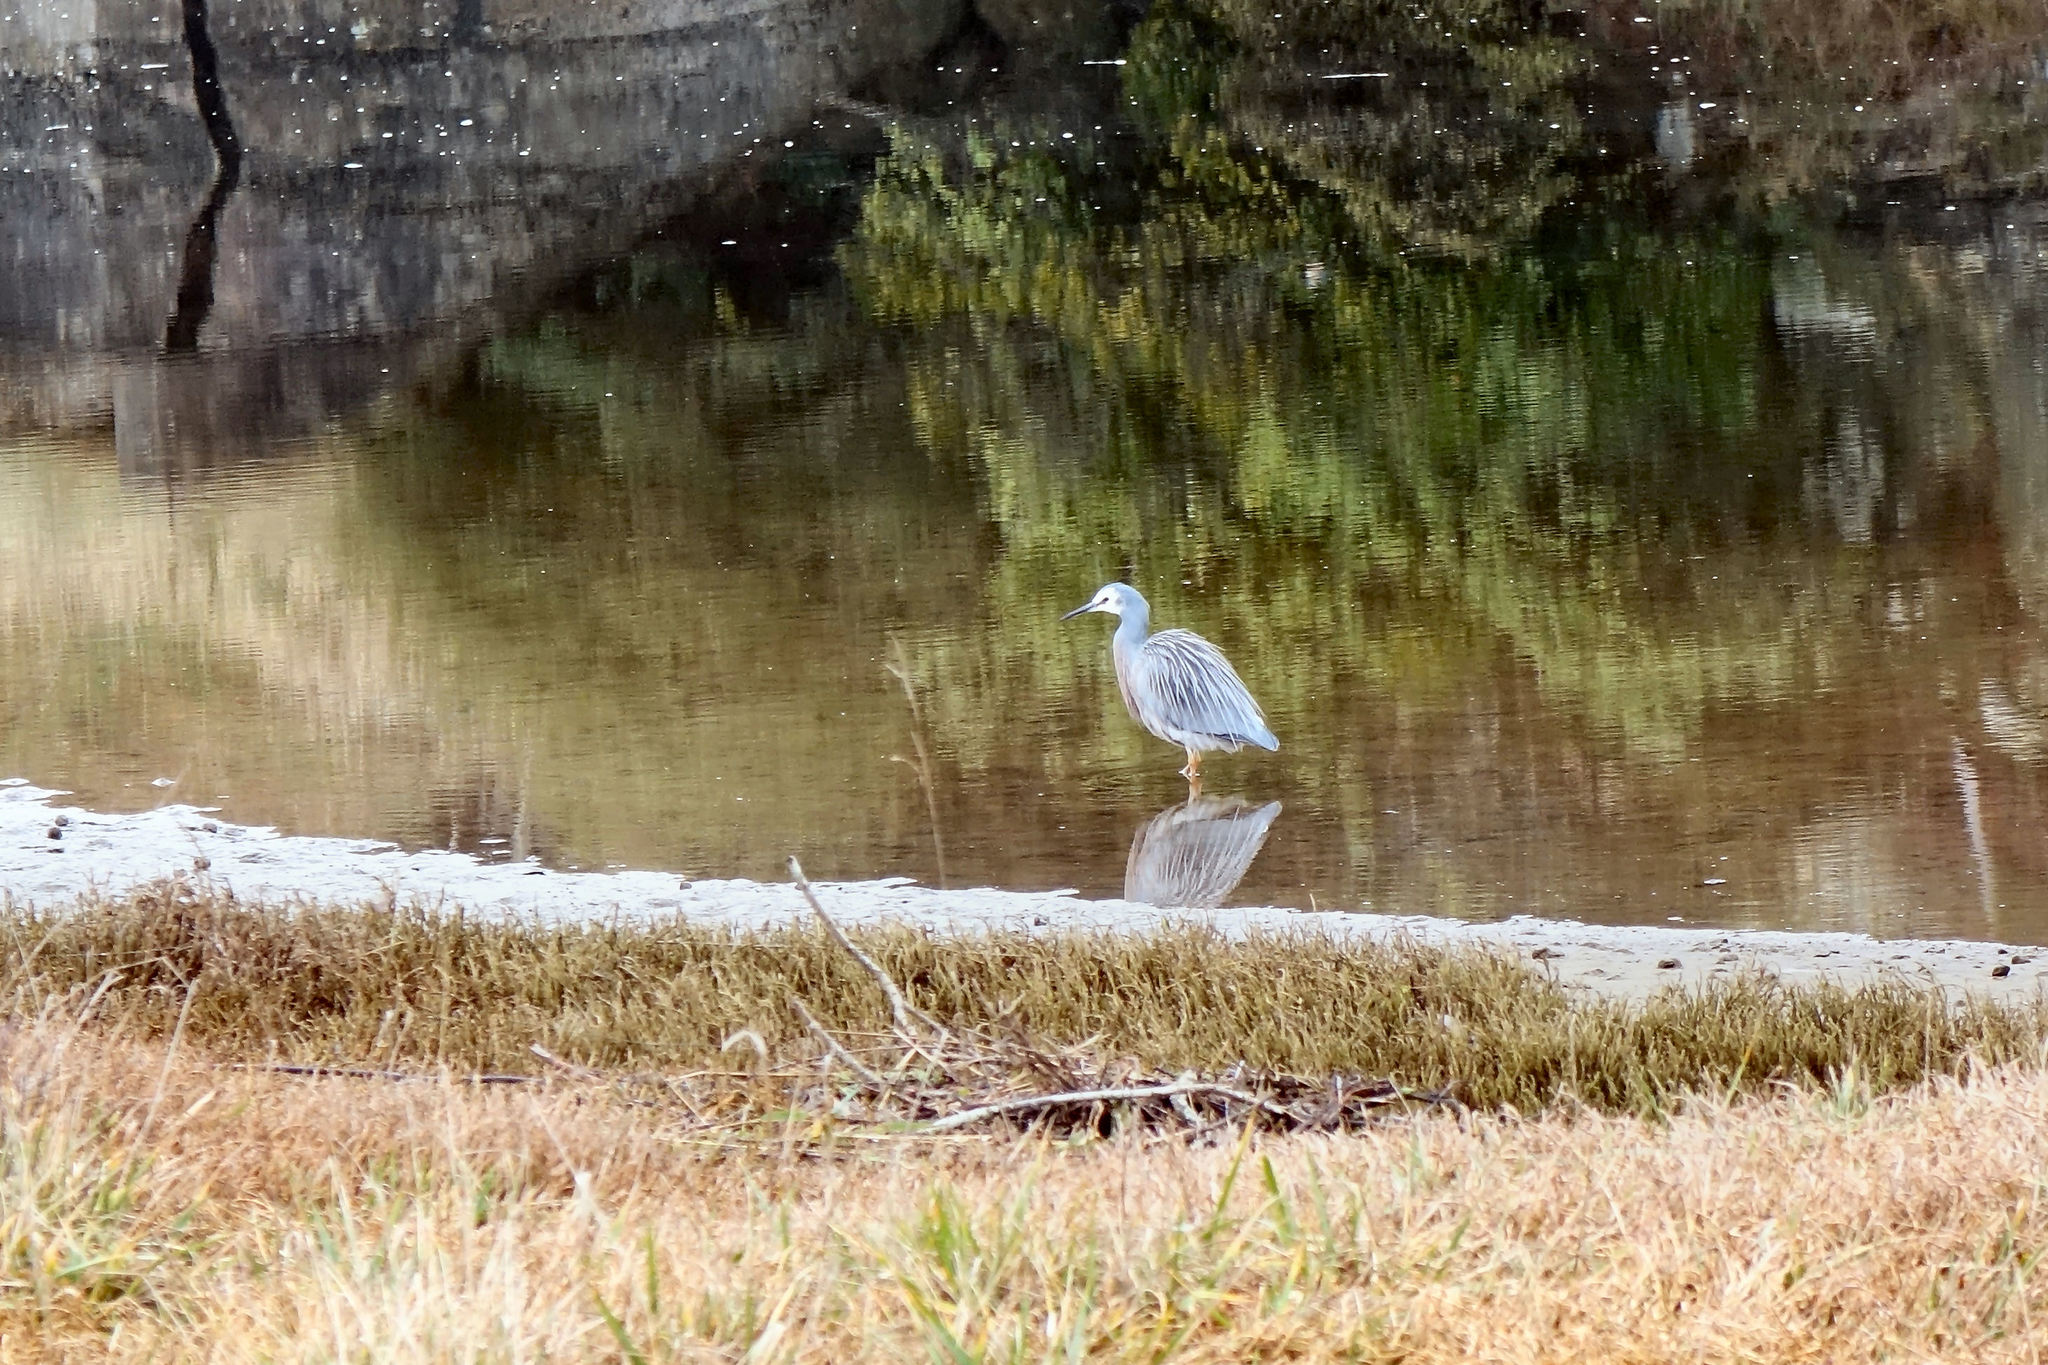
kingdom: Animalia
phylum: Chordata
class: Aves
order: Pelecaniformes
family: Ardeidae
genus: Egretta
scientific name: Egretta novaehollandiae
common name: White-faced heron
